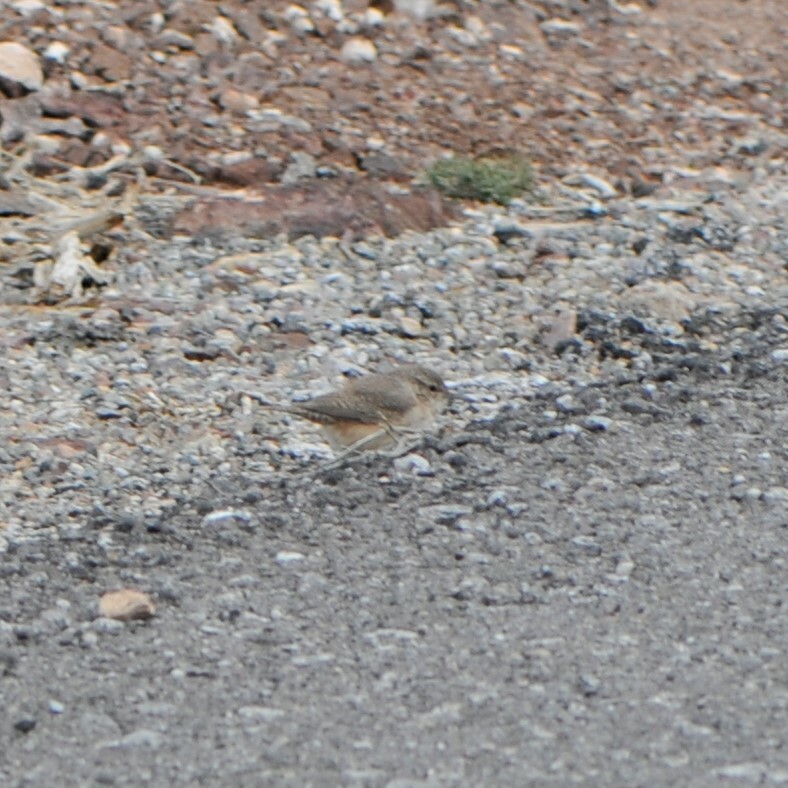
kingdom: Animalia
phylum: Chordata
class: Aves
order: Passeriformes
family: Troglodytidae
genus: Salpinctes
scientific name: Salpinctes obsoletus
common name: Rock wren
